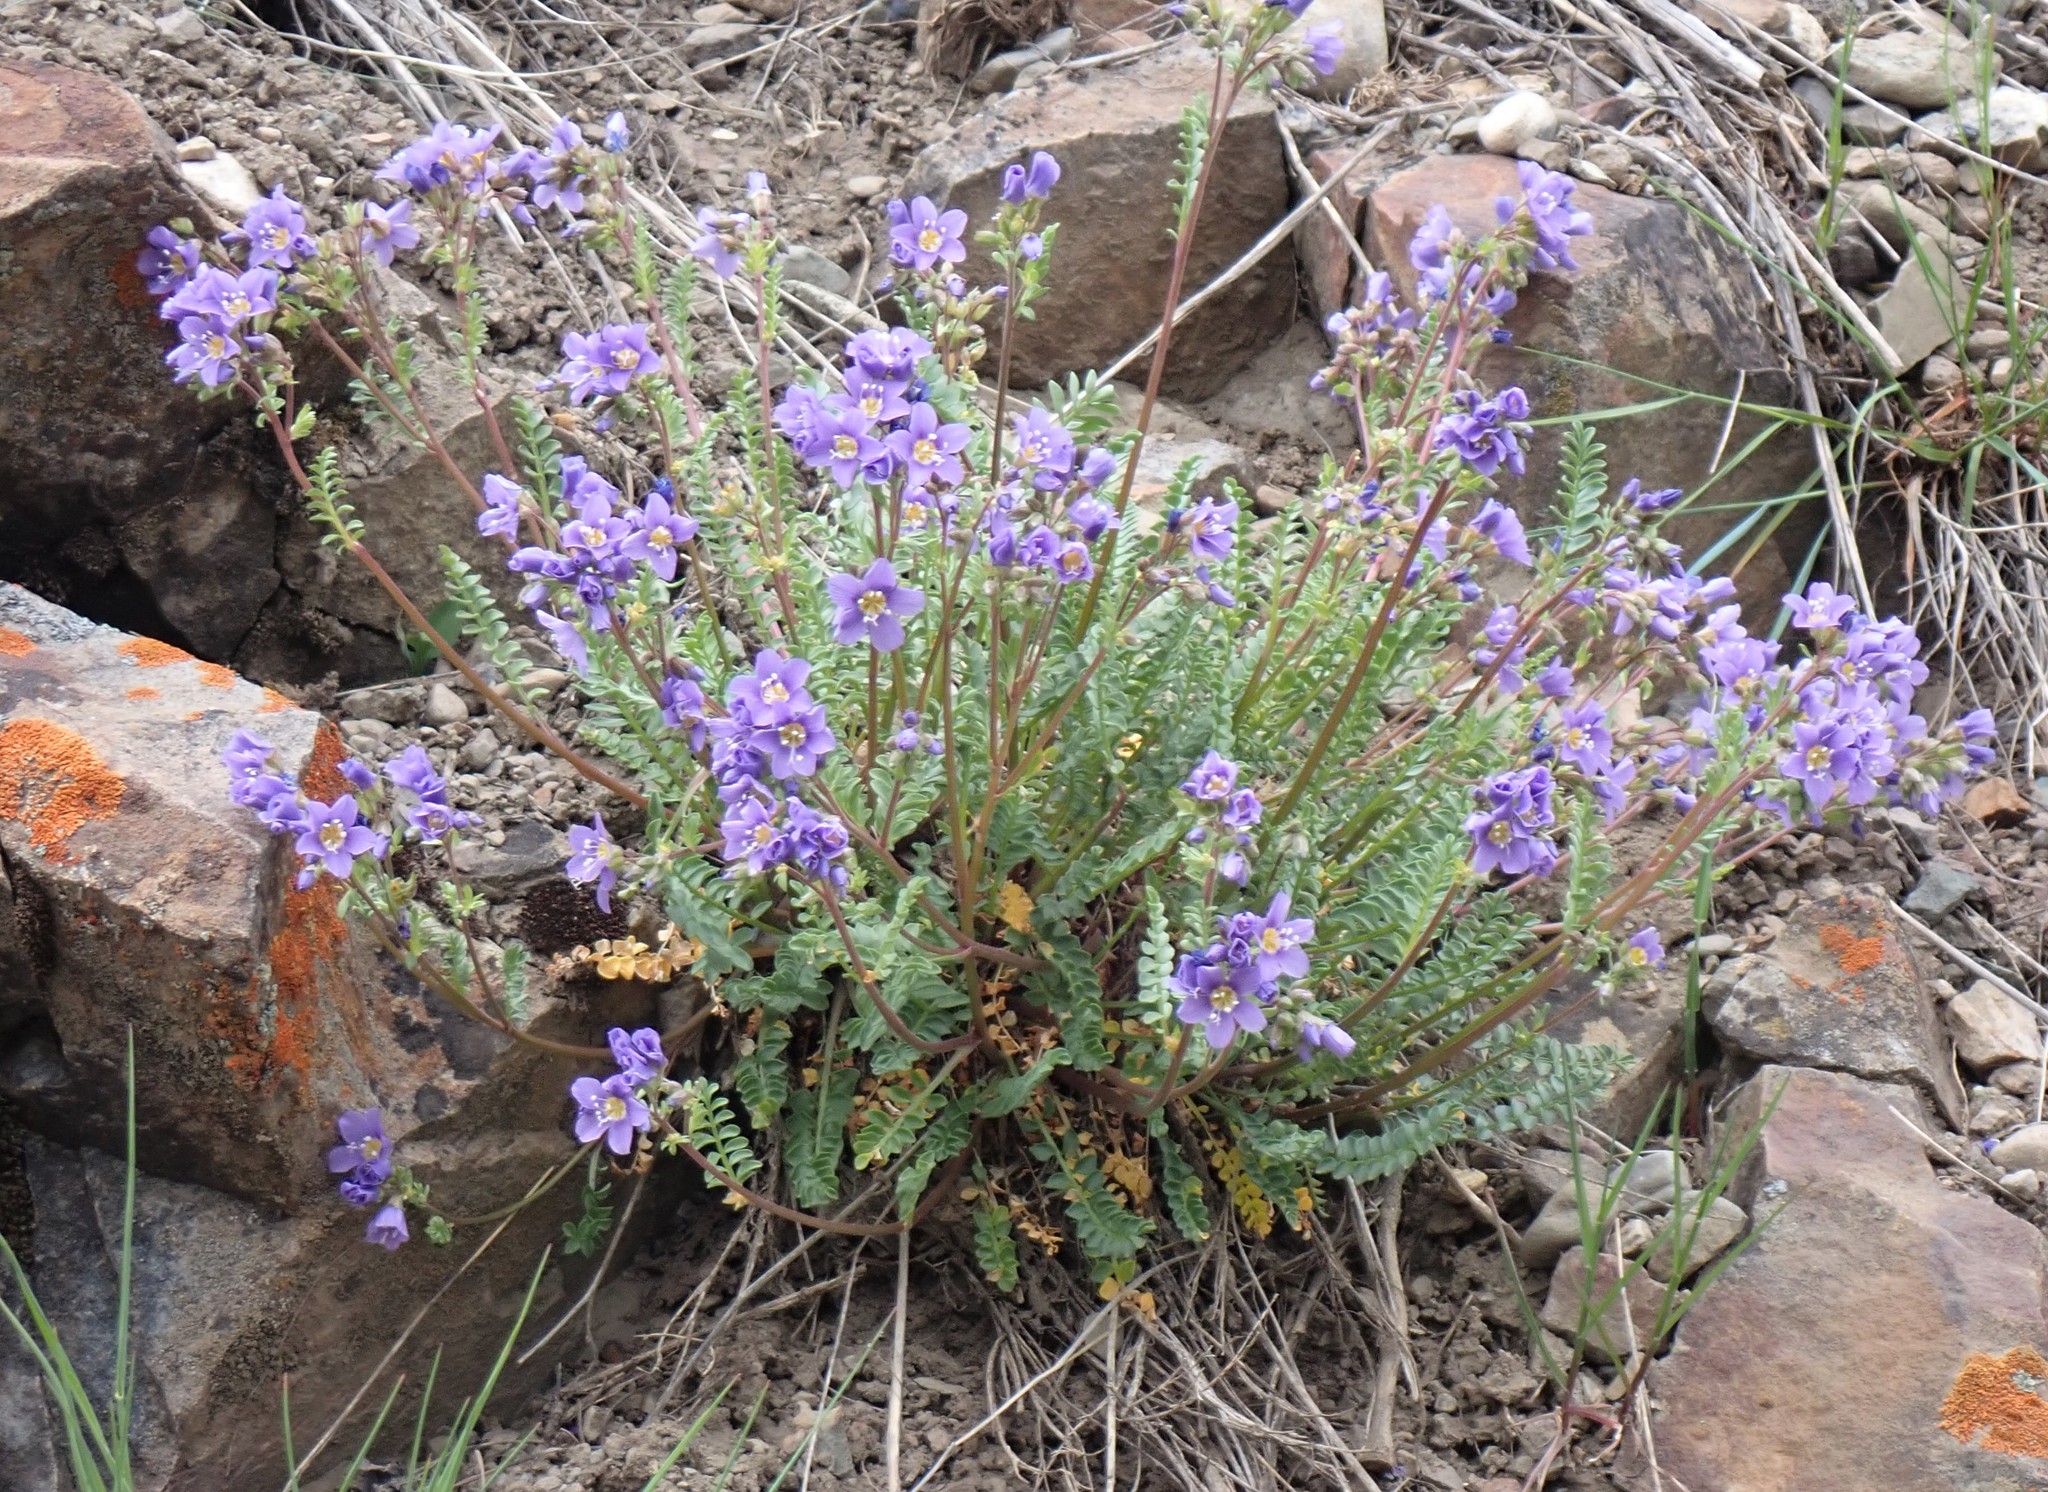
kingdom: Plantae
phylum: Tracheophyta
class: Magnoliopsida
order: Ericales
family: Polemoniaceae
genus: Polemonium
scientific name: Polemonium pulcherrimum
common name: Short jacob's-ladder
